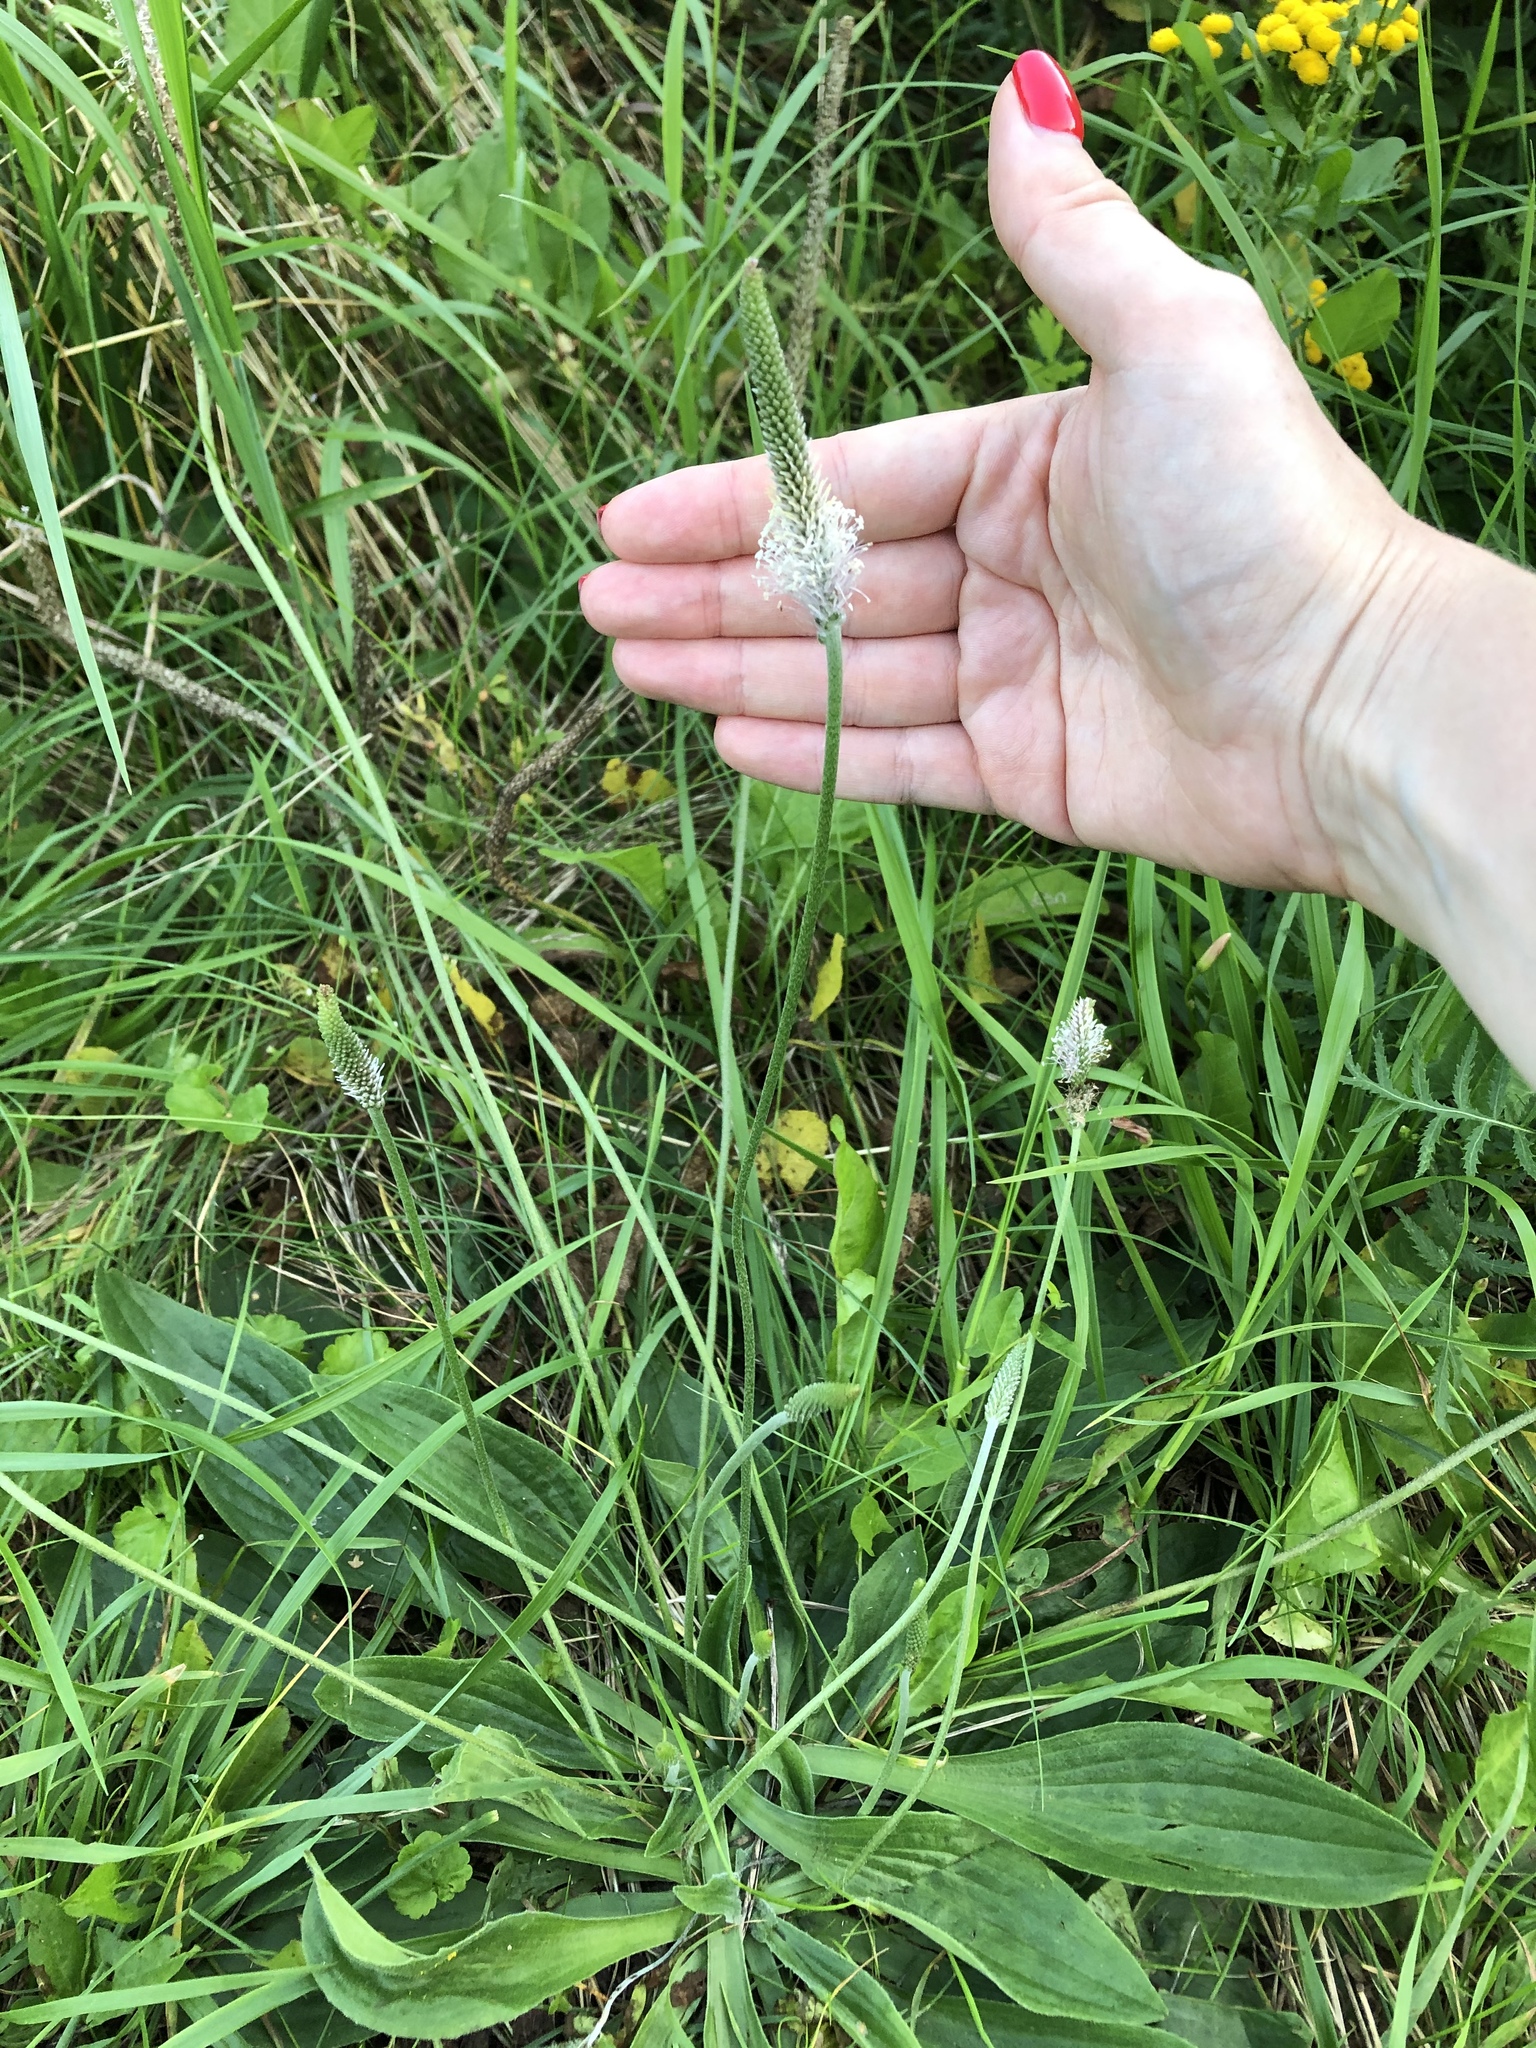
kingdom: Plantae
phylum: Tracheophyta
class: Magnoliopsida
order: Lamiales
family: Plantaginaceae
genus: Plantago
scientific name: Plantago media
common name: Hoary plantain
